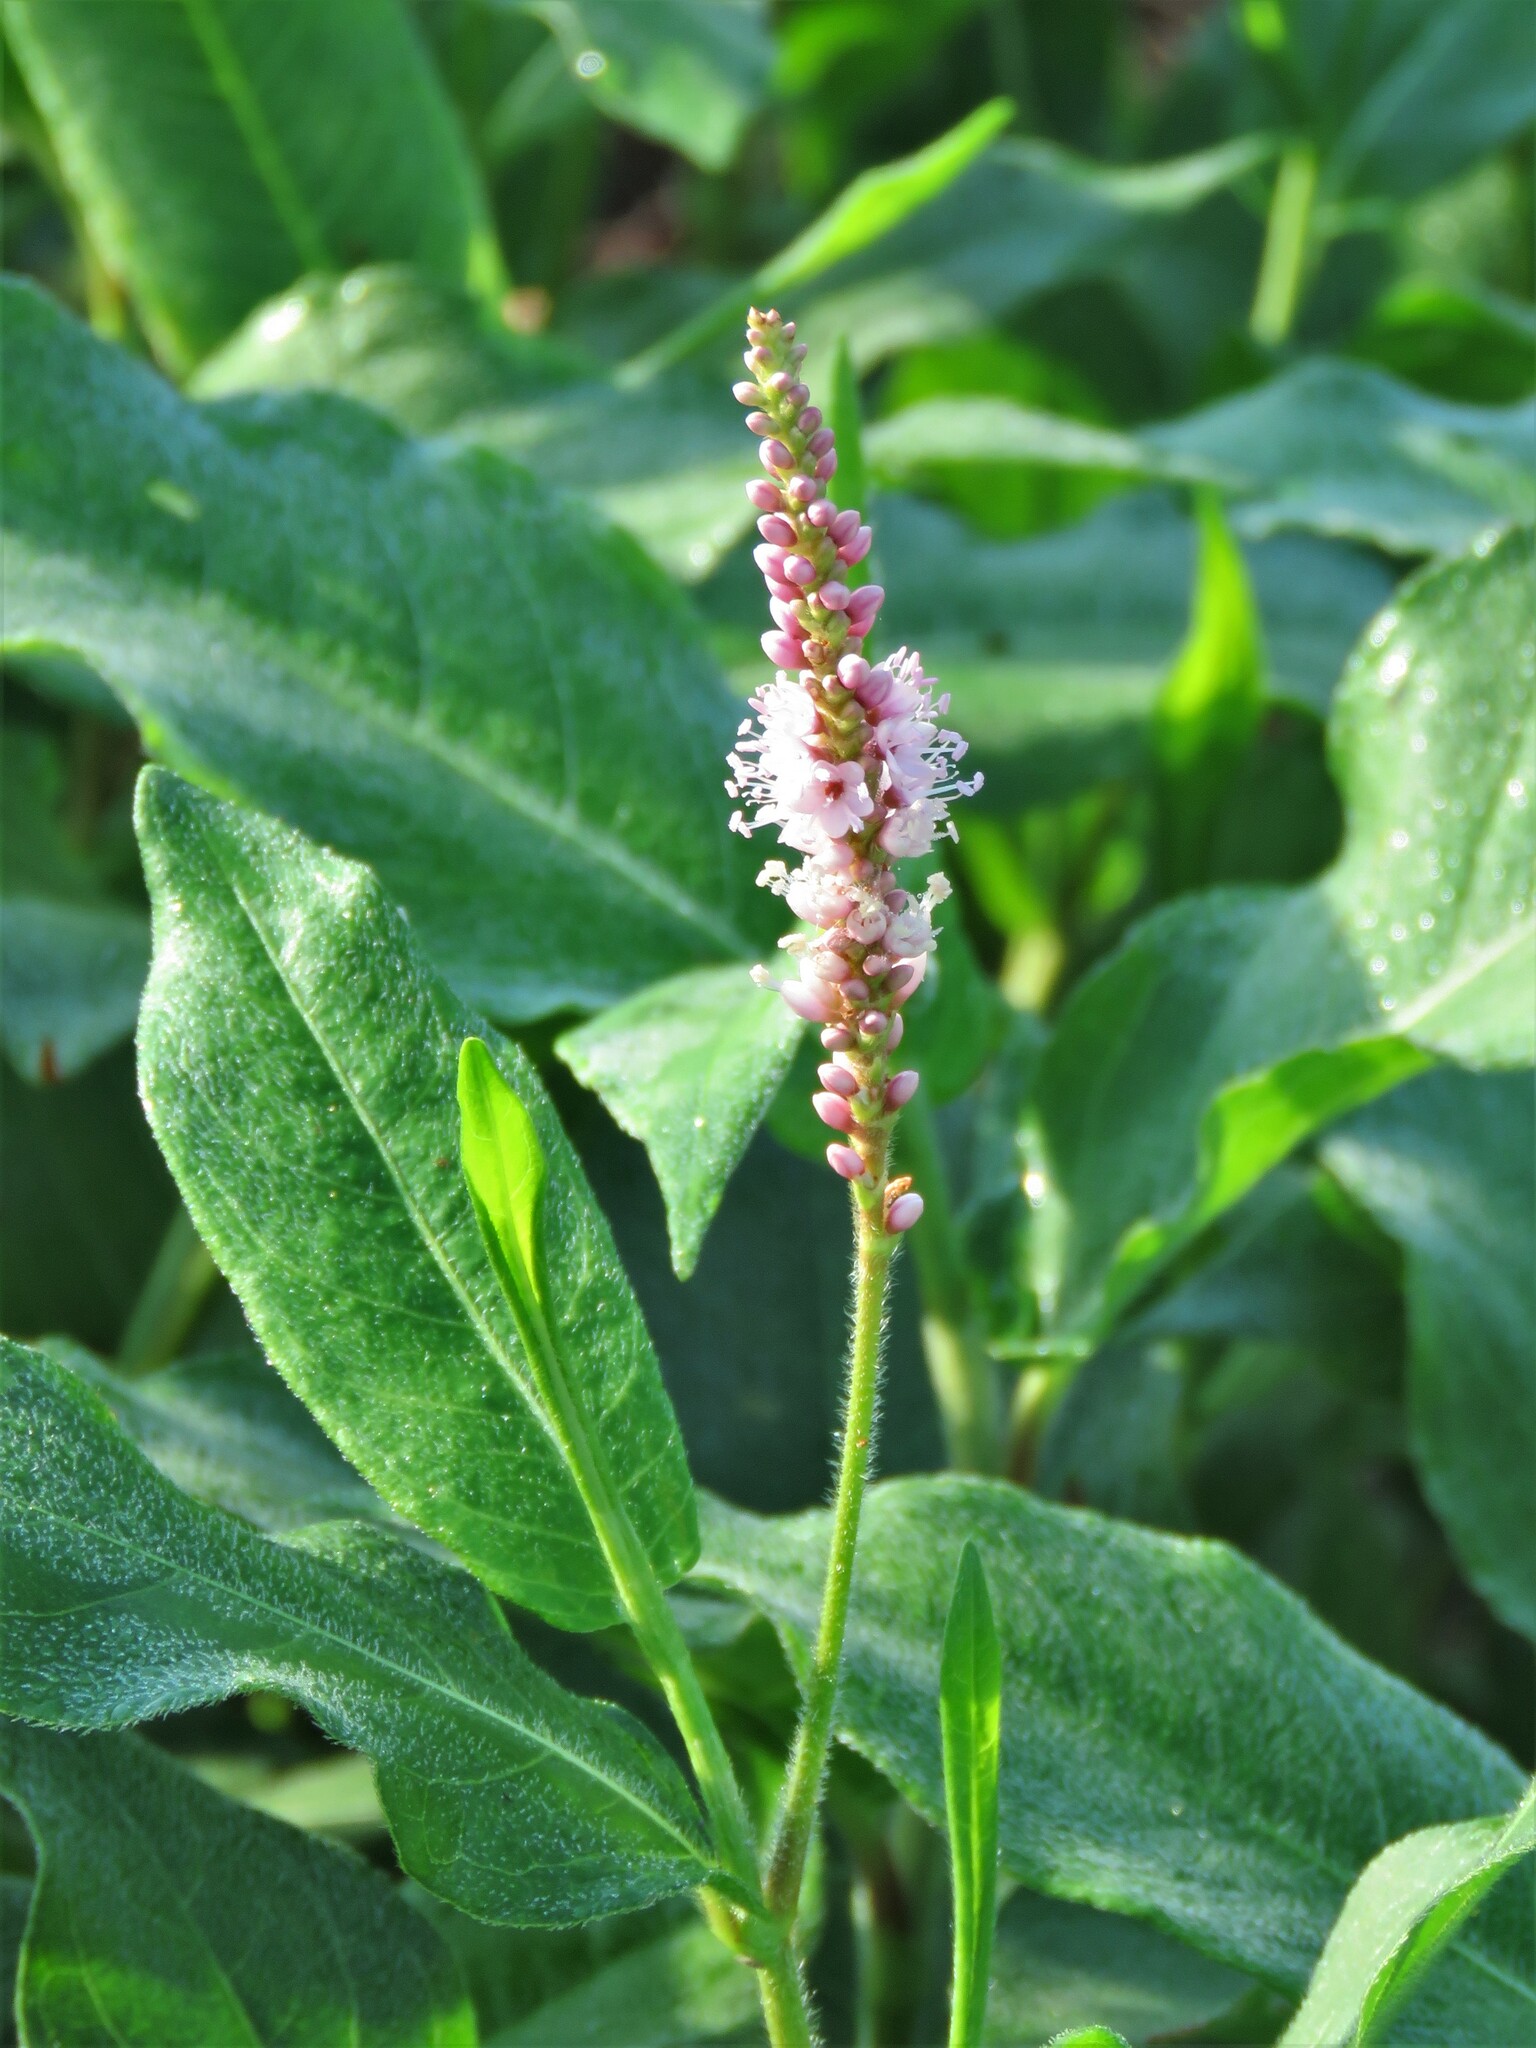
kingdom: Plantae
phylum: Tracheophyta
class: Magnoliopsida
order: Caryophyllales
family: Polygonaceae
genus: Persicaria
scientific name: Persicaria amphibia
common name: Amphibious bistort
